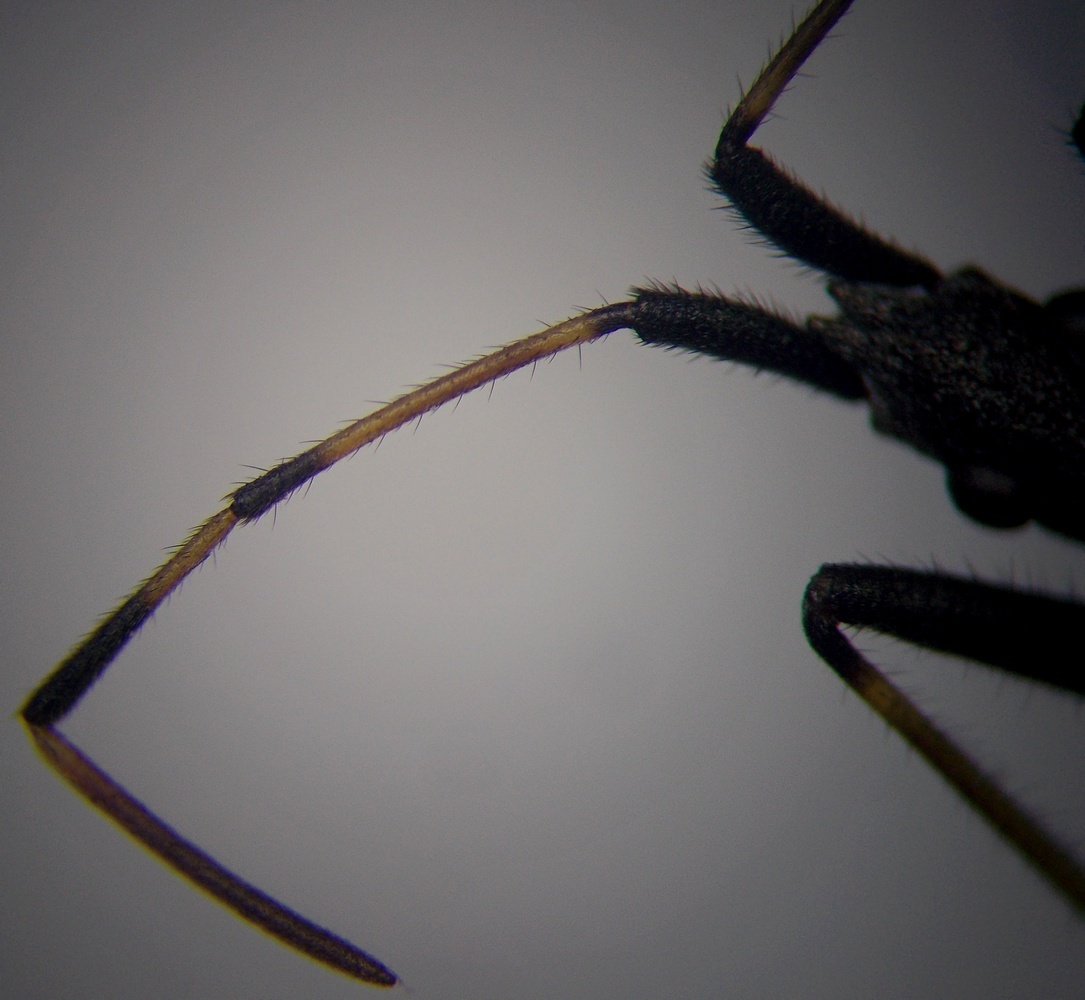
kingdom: Animalia
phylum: Arthropoda
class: Insecta
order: Hemiptera
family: Stenocephalidae
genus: Dicranocephalus
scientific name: Dicranocephalus albipes
